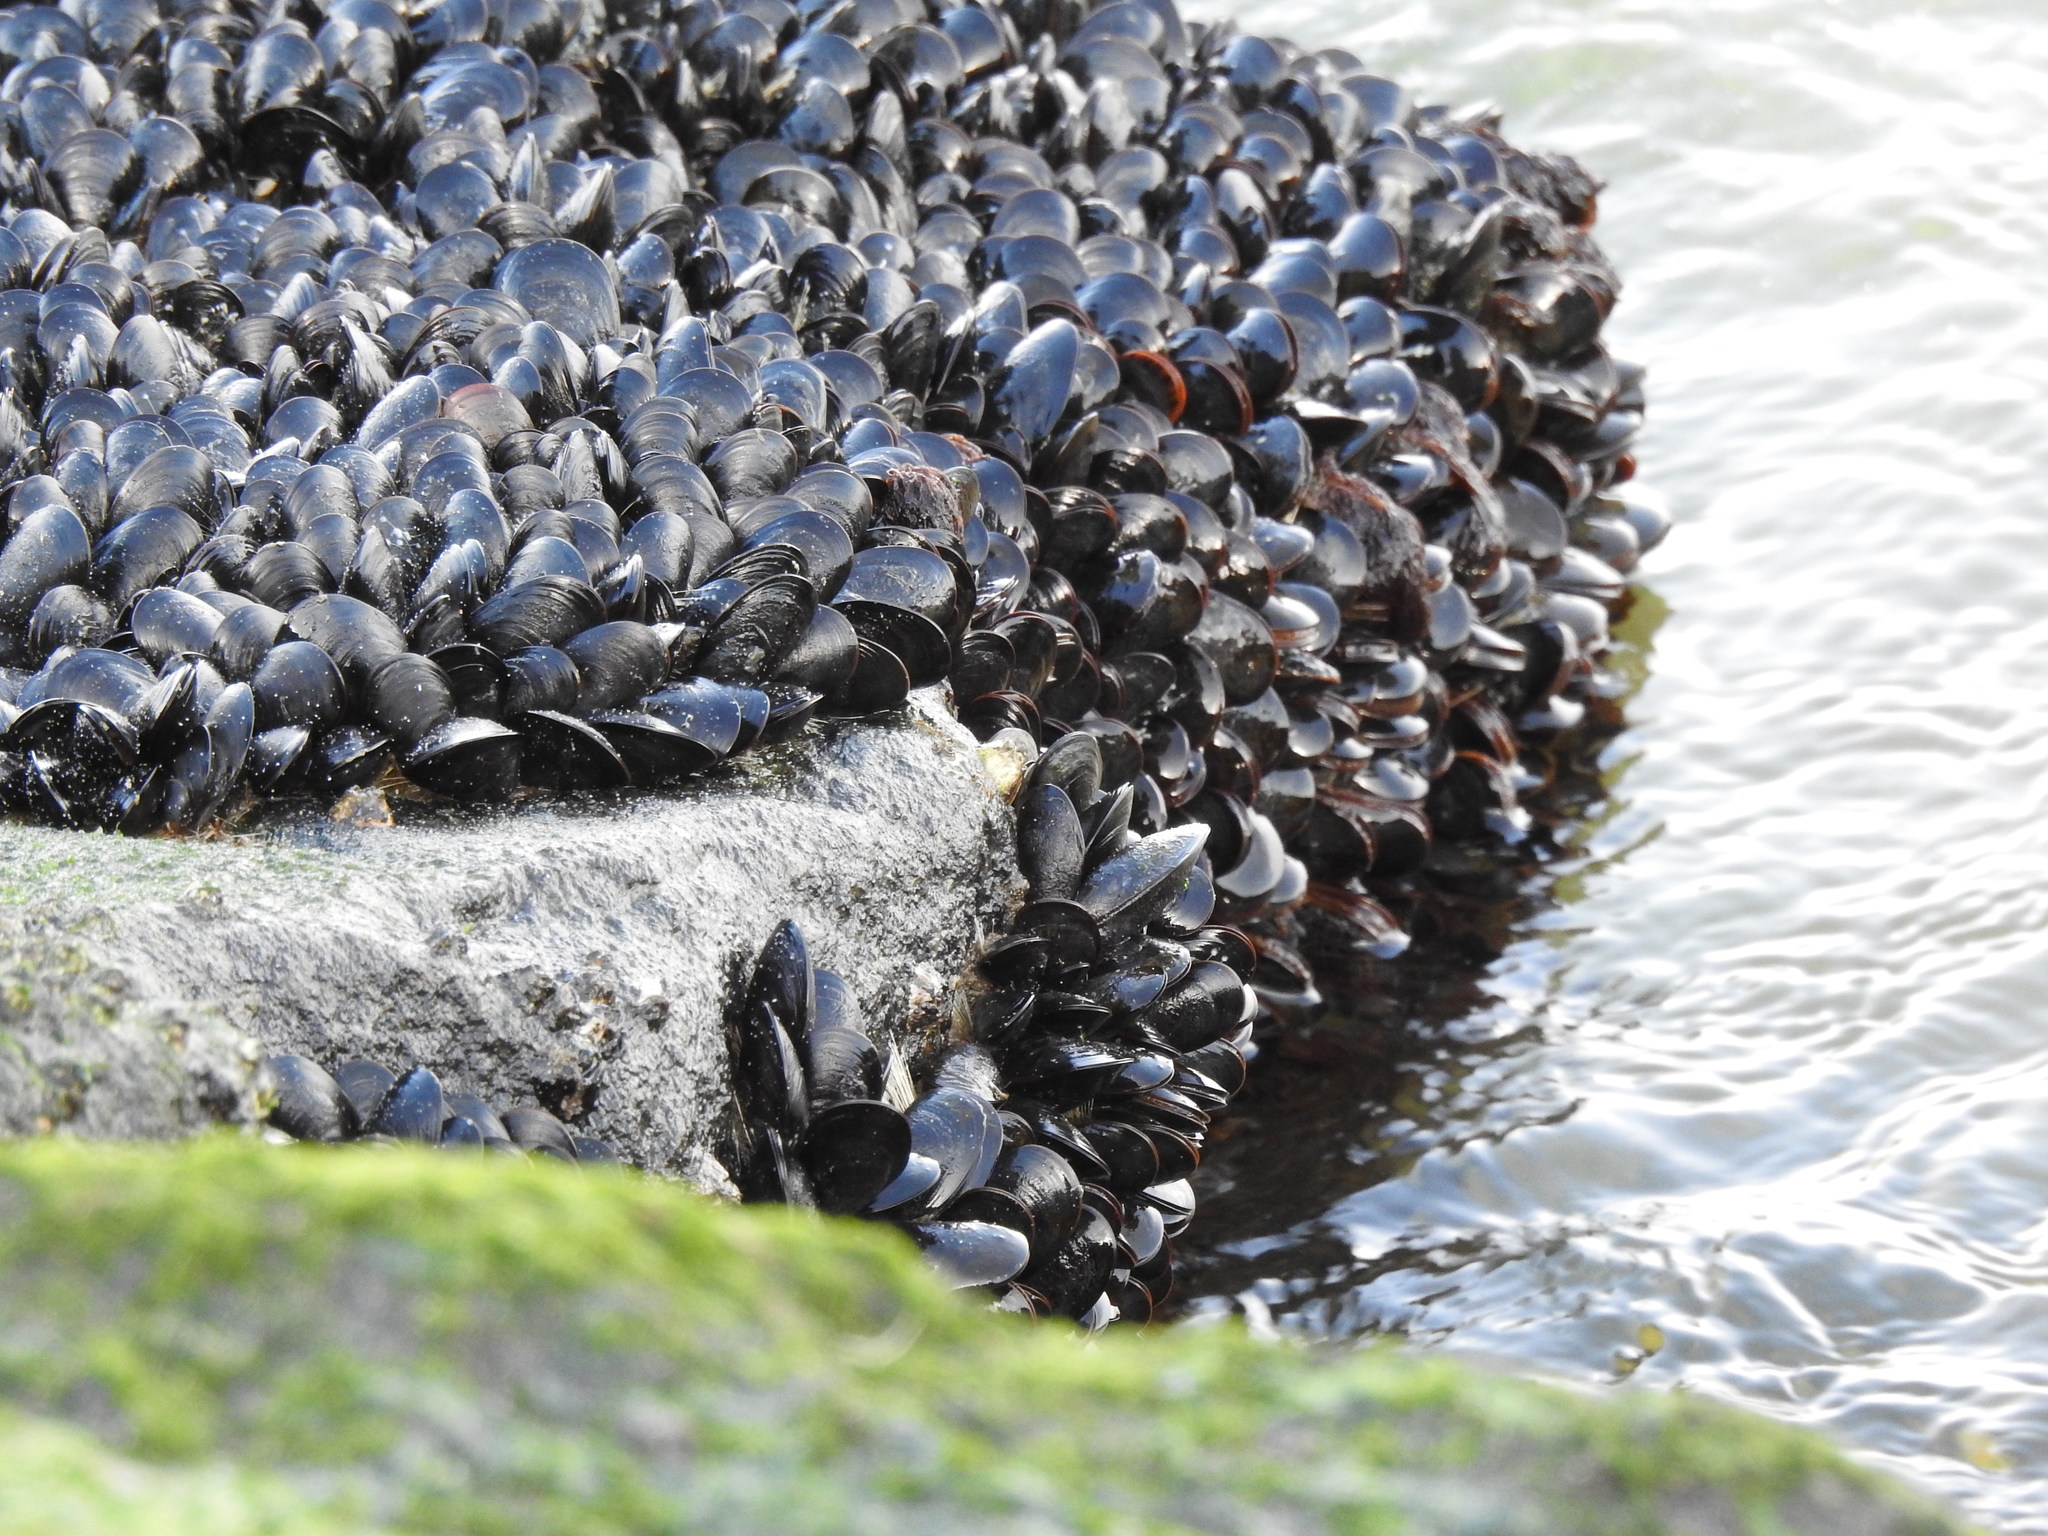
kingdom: Animalia
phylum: Mollusca
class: Bivalvia
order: Mytilida
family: Mytilidae
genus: Mytilus
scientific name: Mytilus edulis
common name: Blue mussel
